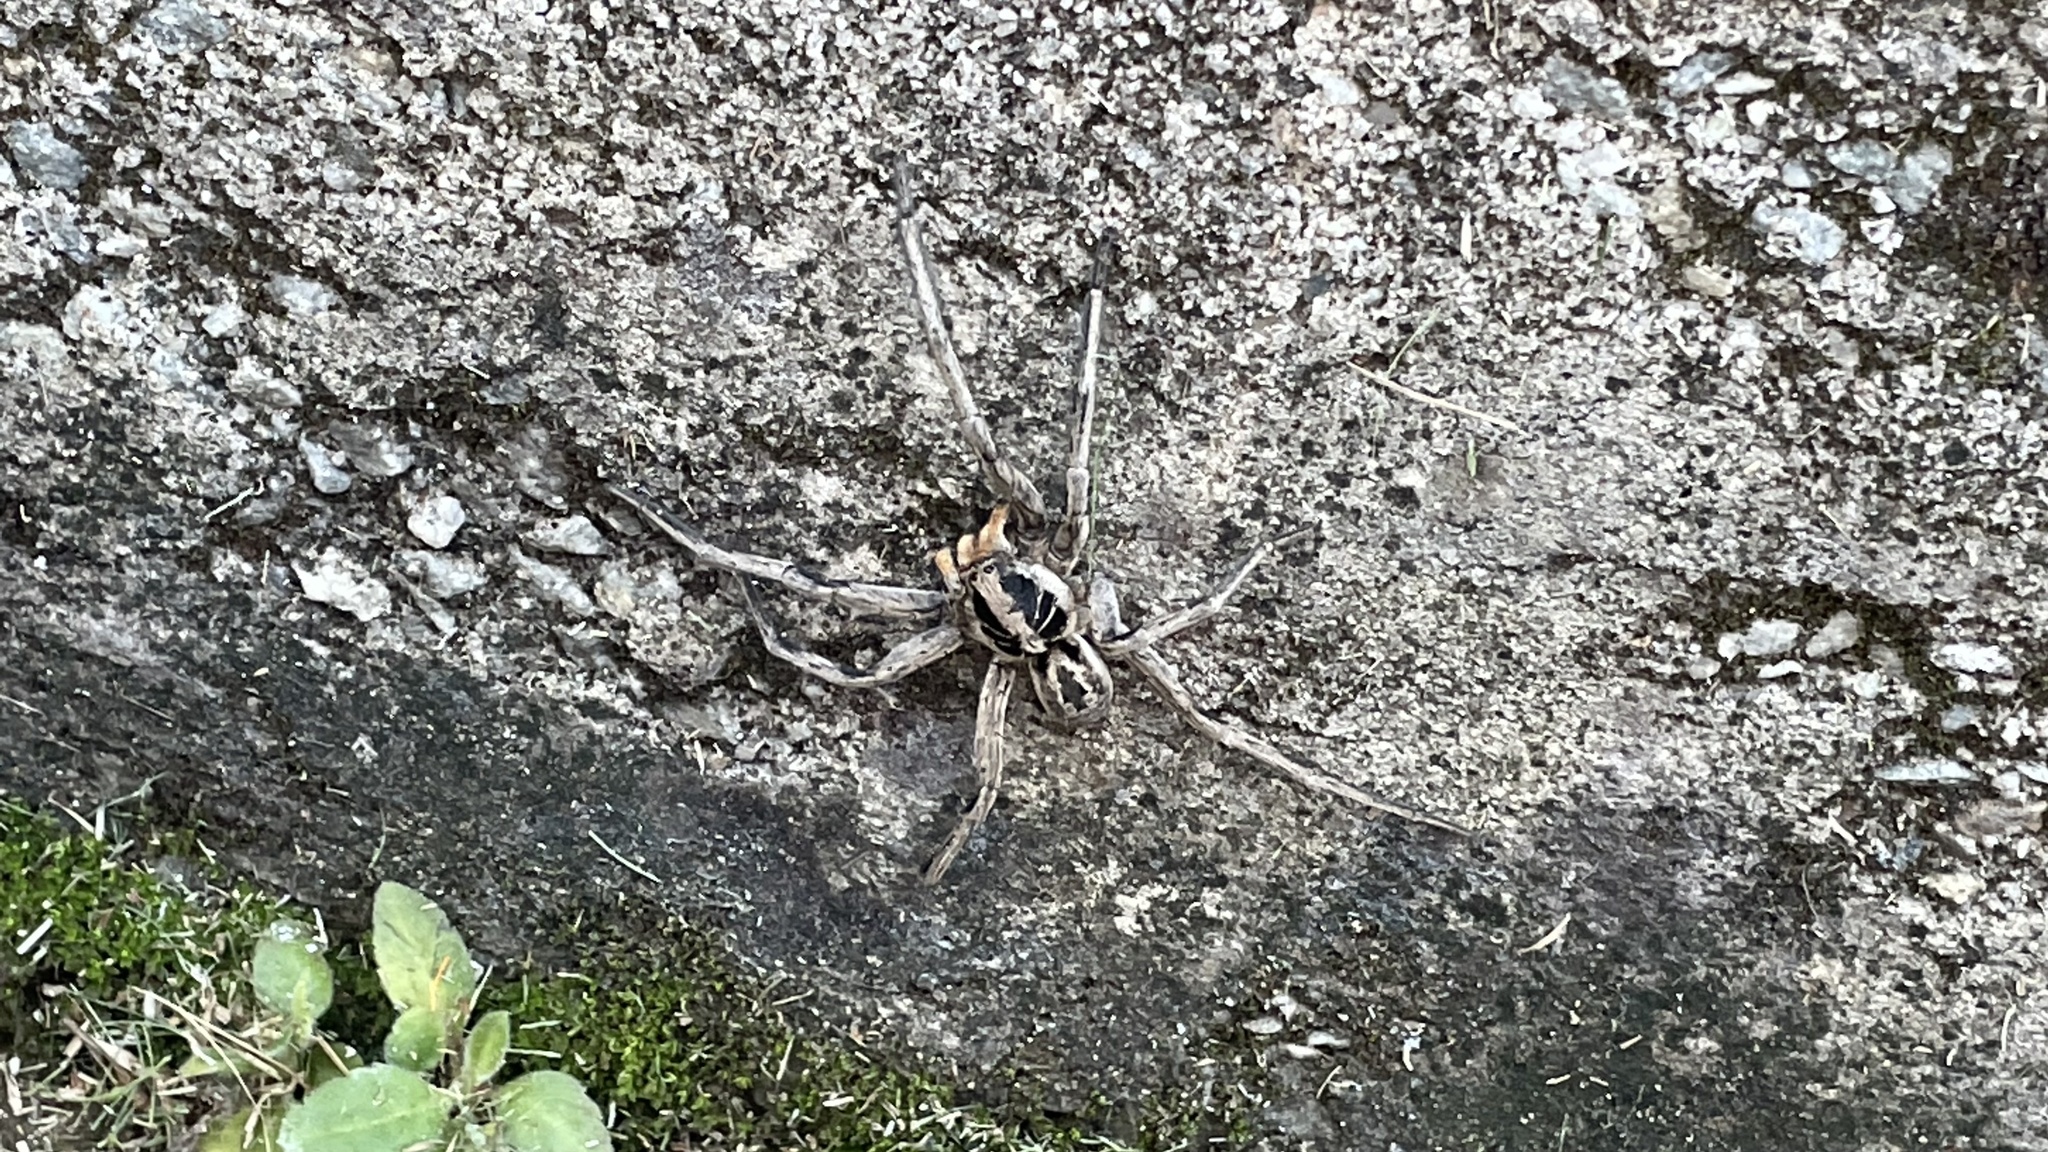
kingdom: Animalia
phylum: Arthropoda
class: Arachnida
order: Araneae
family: Lycosidae
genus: Lycosa
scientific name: Lycosa erythrognatha
